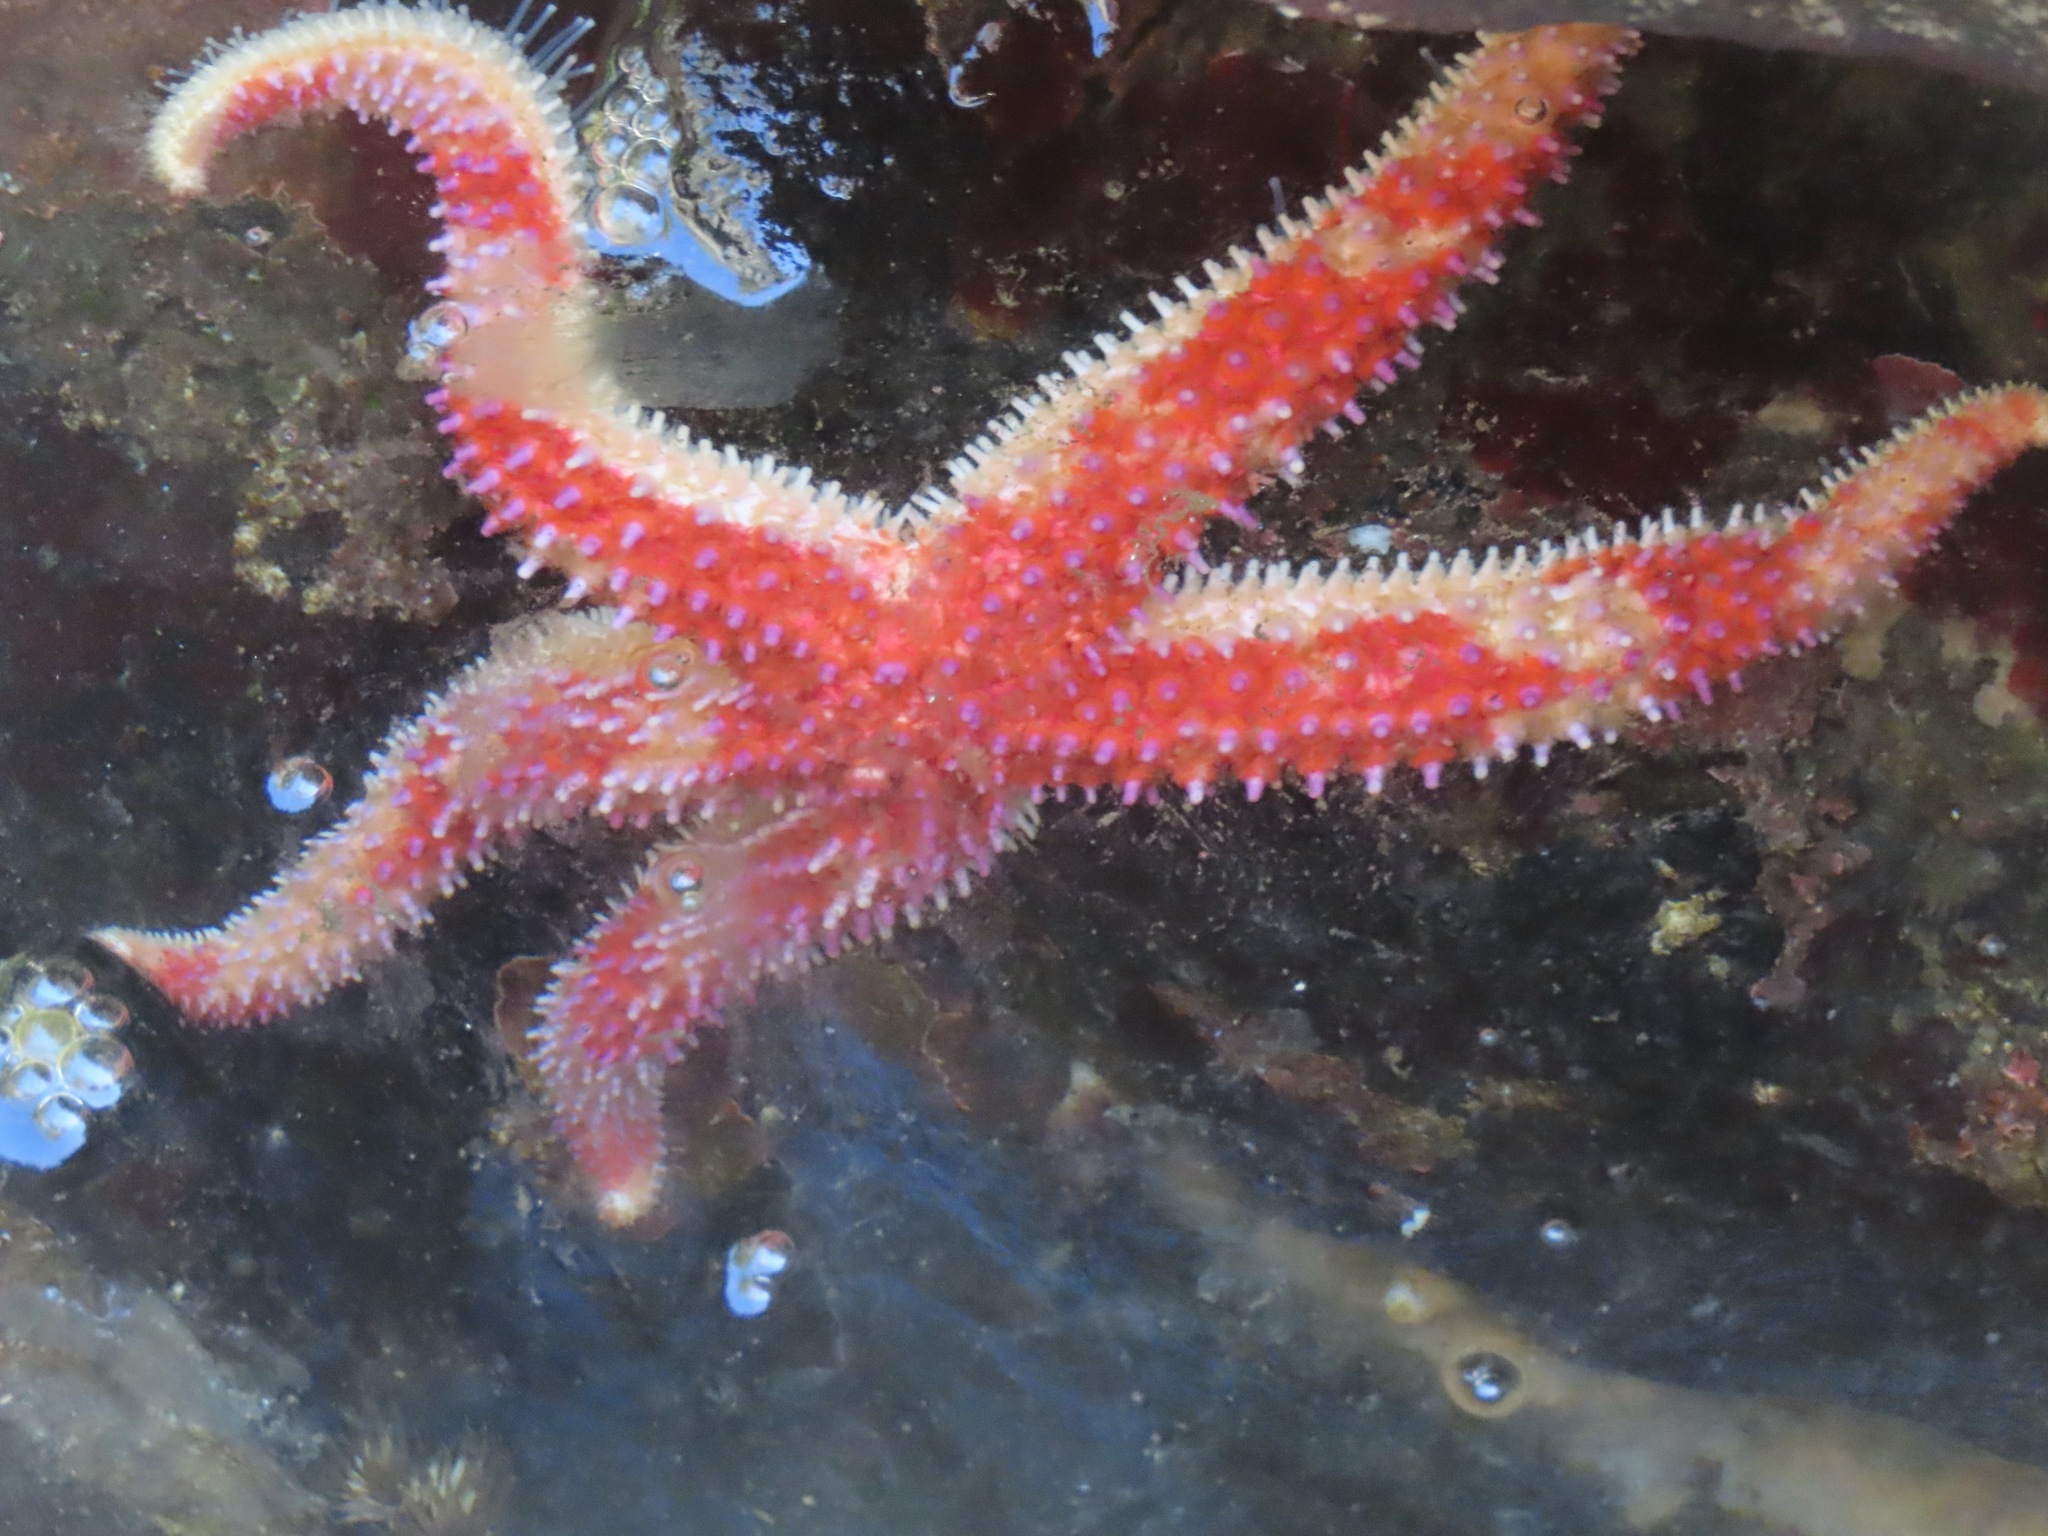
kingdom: Animalia
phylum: Echinodermata
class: Asteroidea
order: Forcipulatida
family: Asteriidae
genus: Orthasterias
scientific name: Orthasterias koehleri
